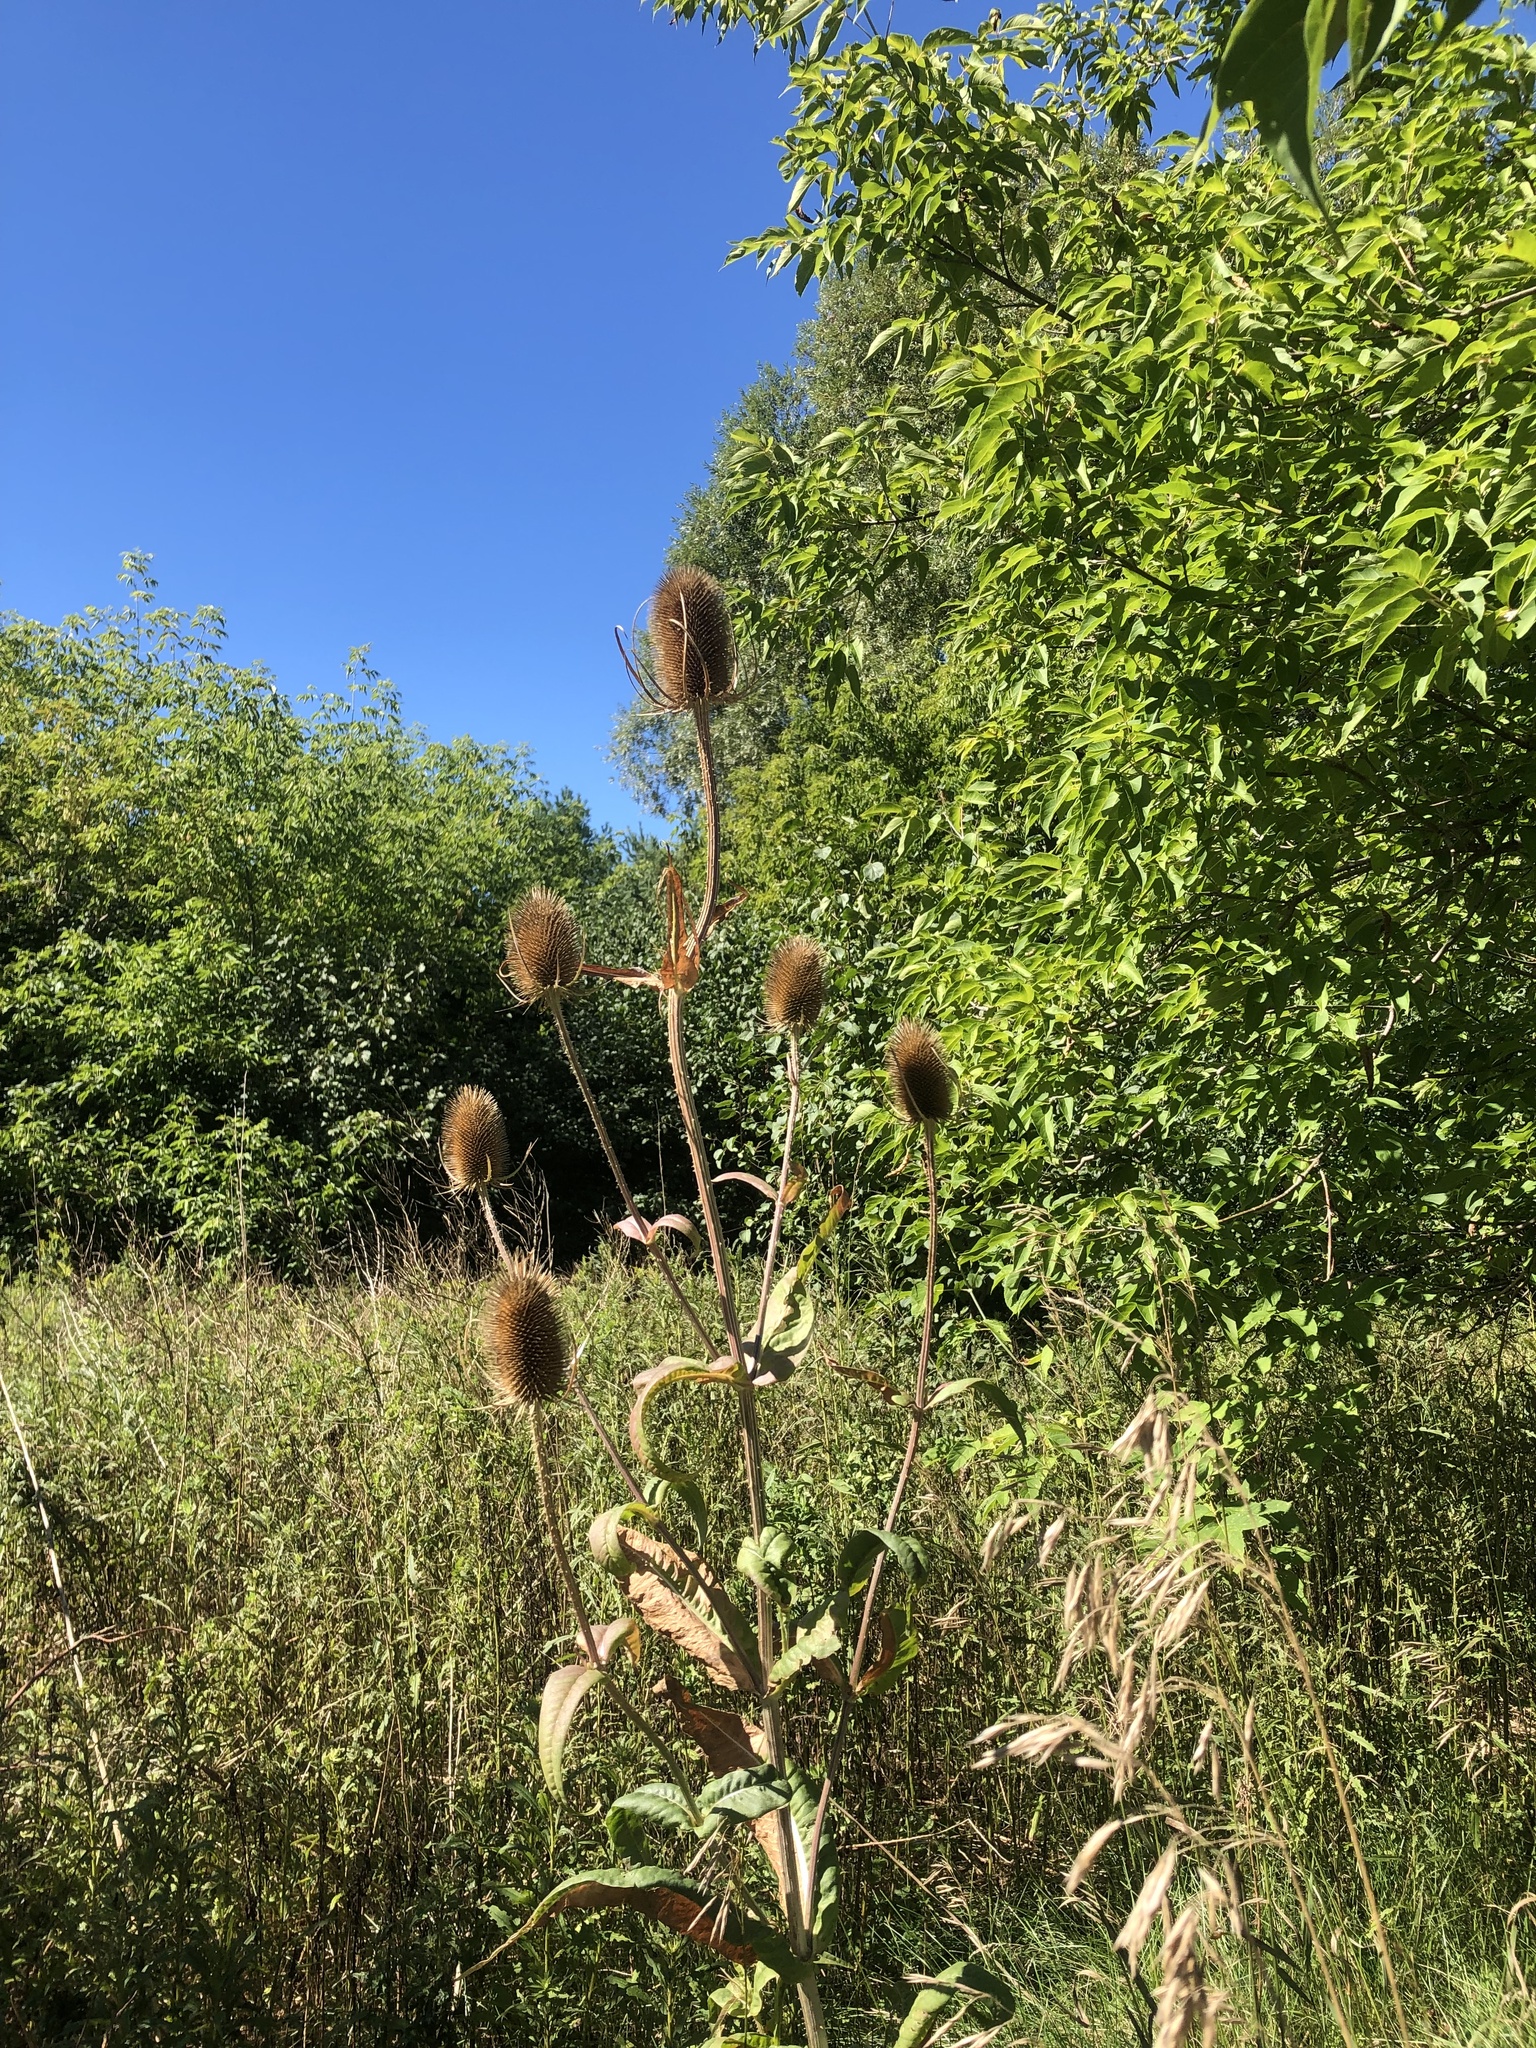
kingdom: Plantae
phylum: Tracheophyta
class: Magnoliopsida
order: Dipsacales
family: Caprifoliaceae
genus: Dipsacus
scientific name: Dipsacus fullonum
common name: Teasel
